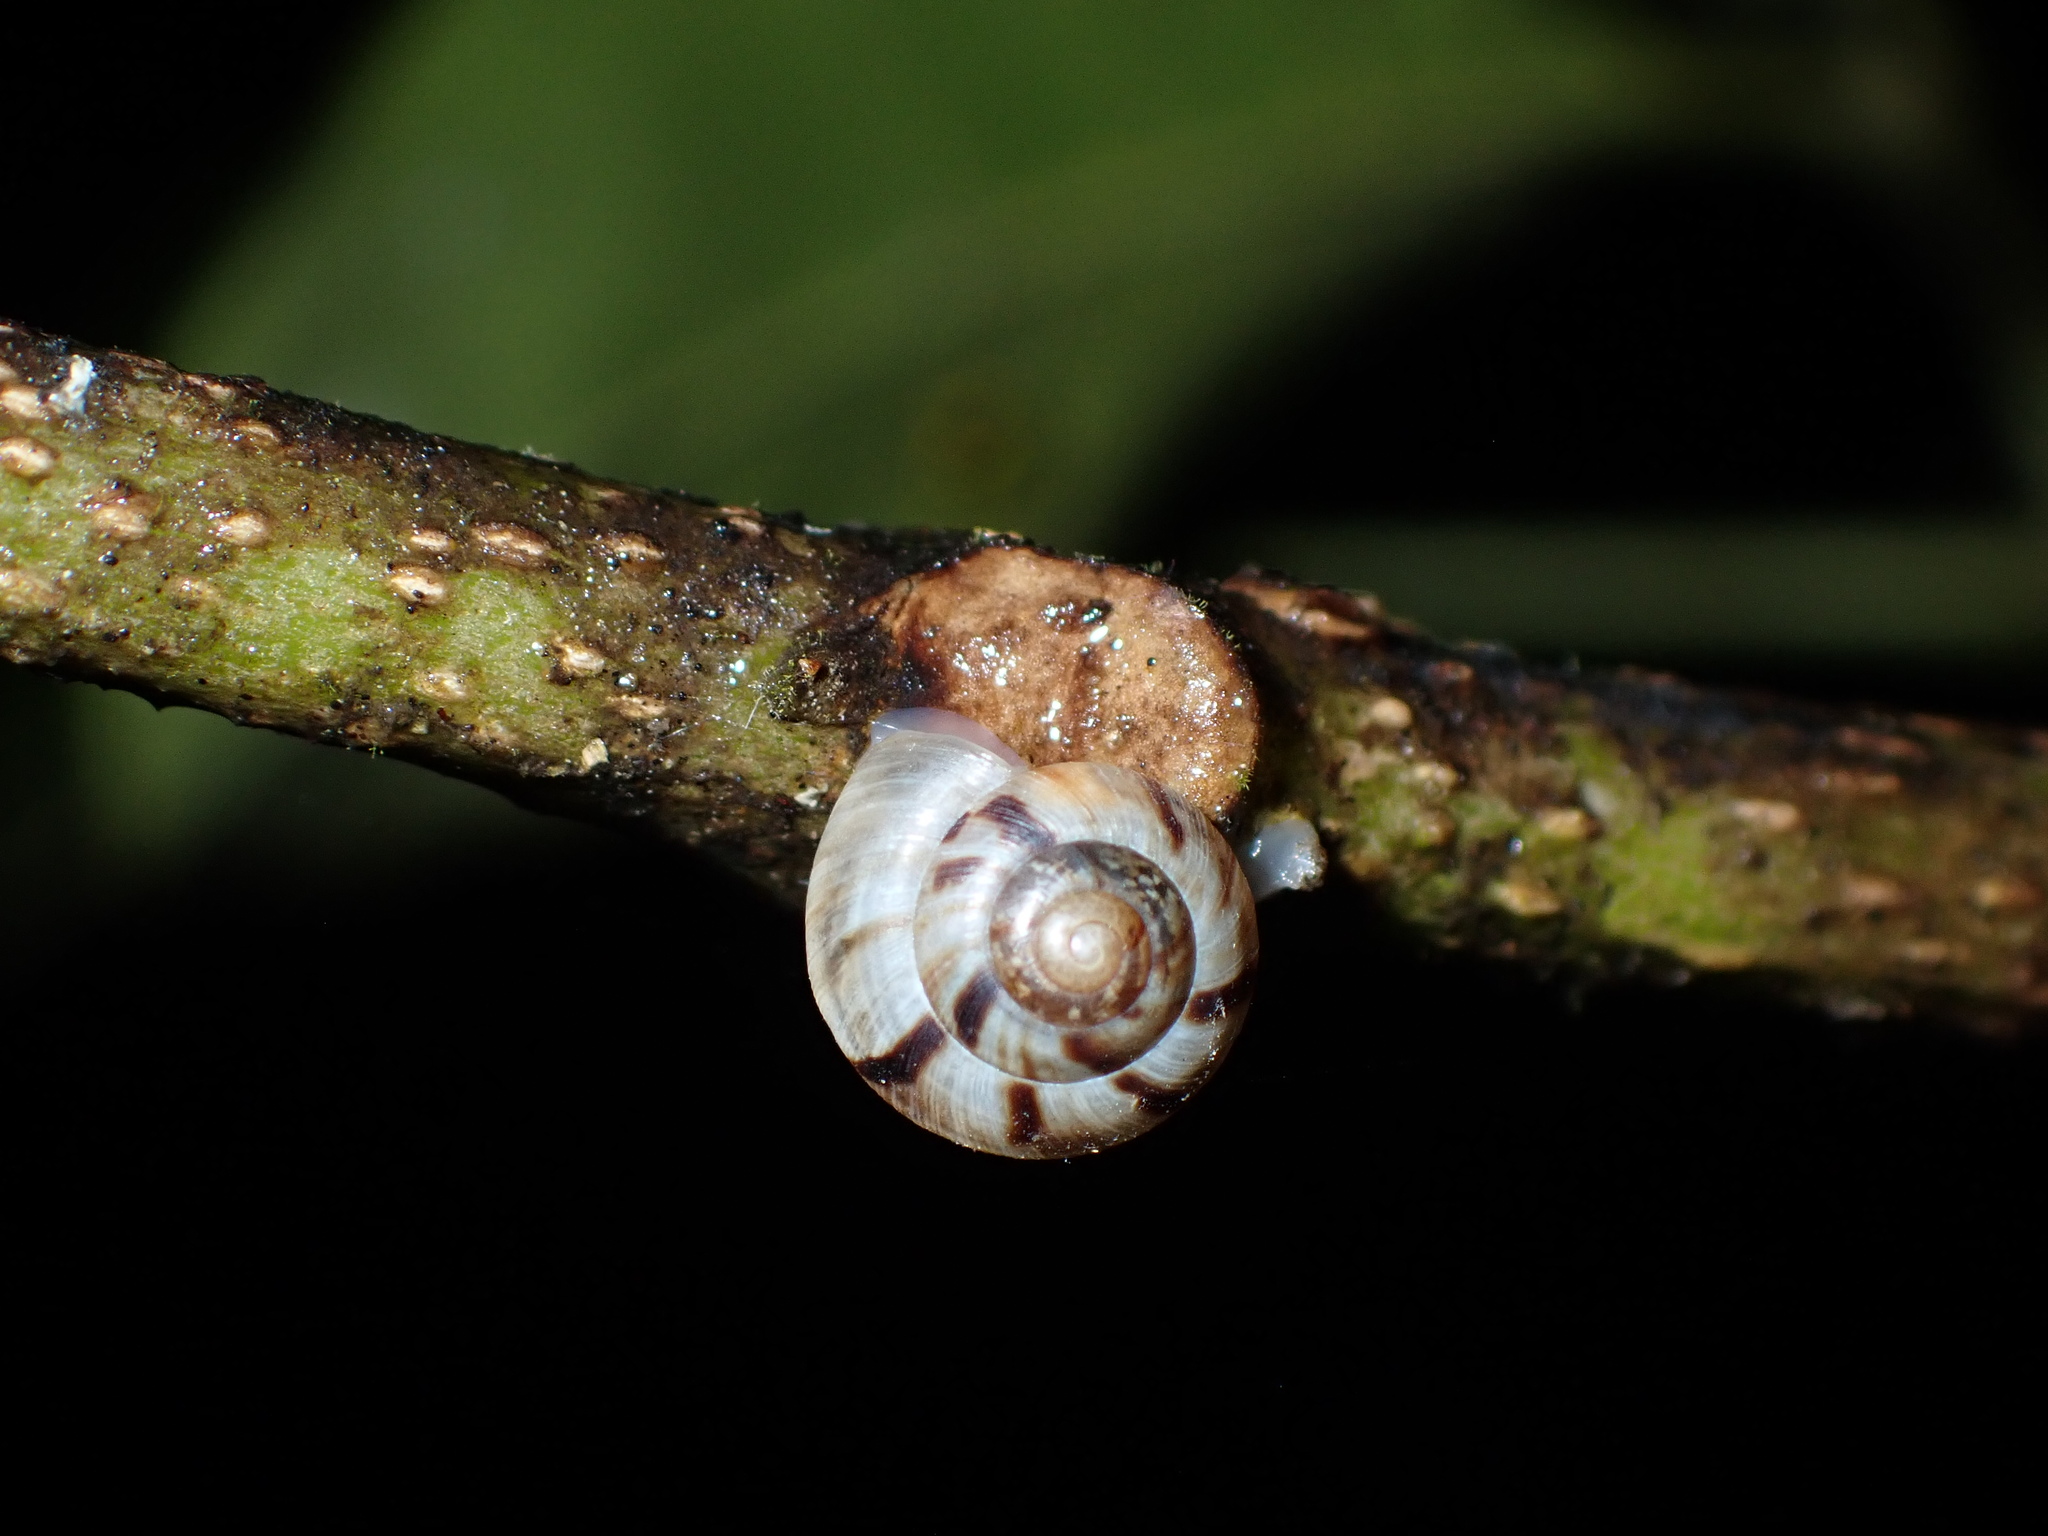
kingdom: Animalia
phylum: Mollusca
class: Gastropoda
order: Stylommatophora
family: Charopidae
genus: Serpho
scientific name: Serpho
